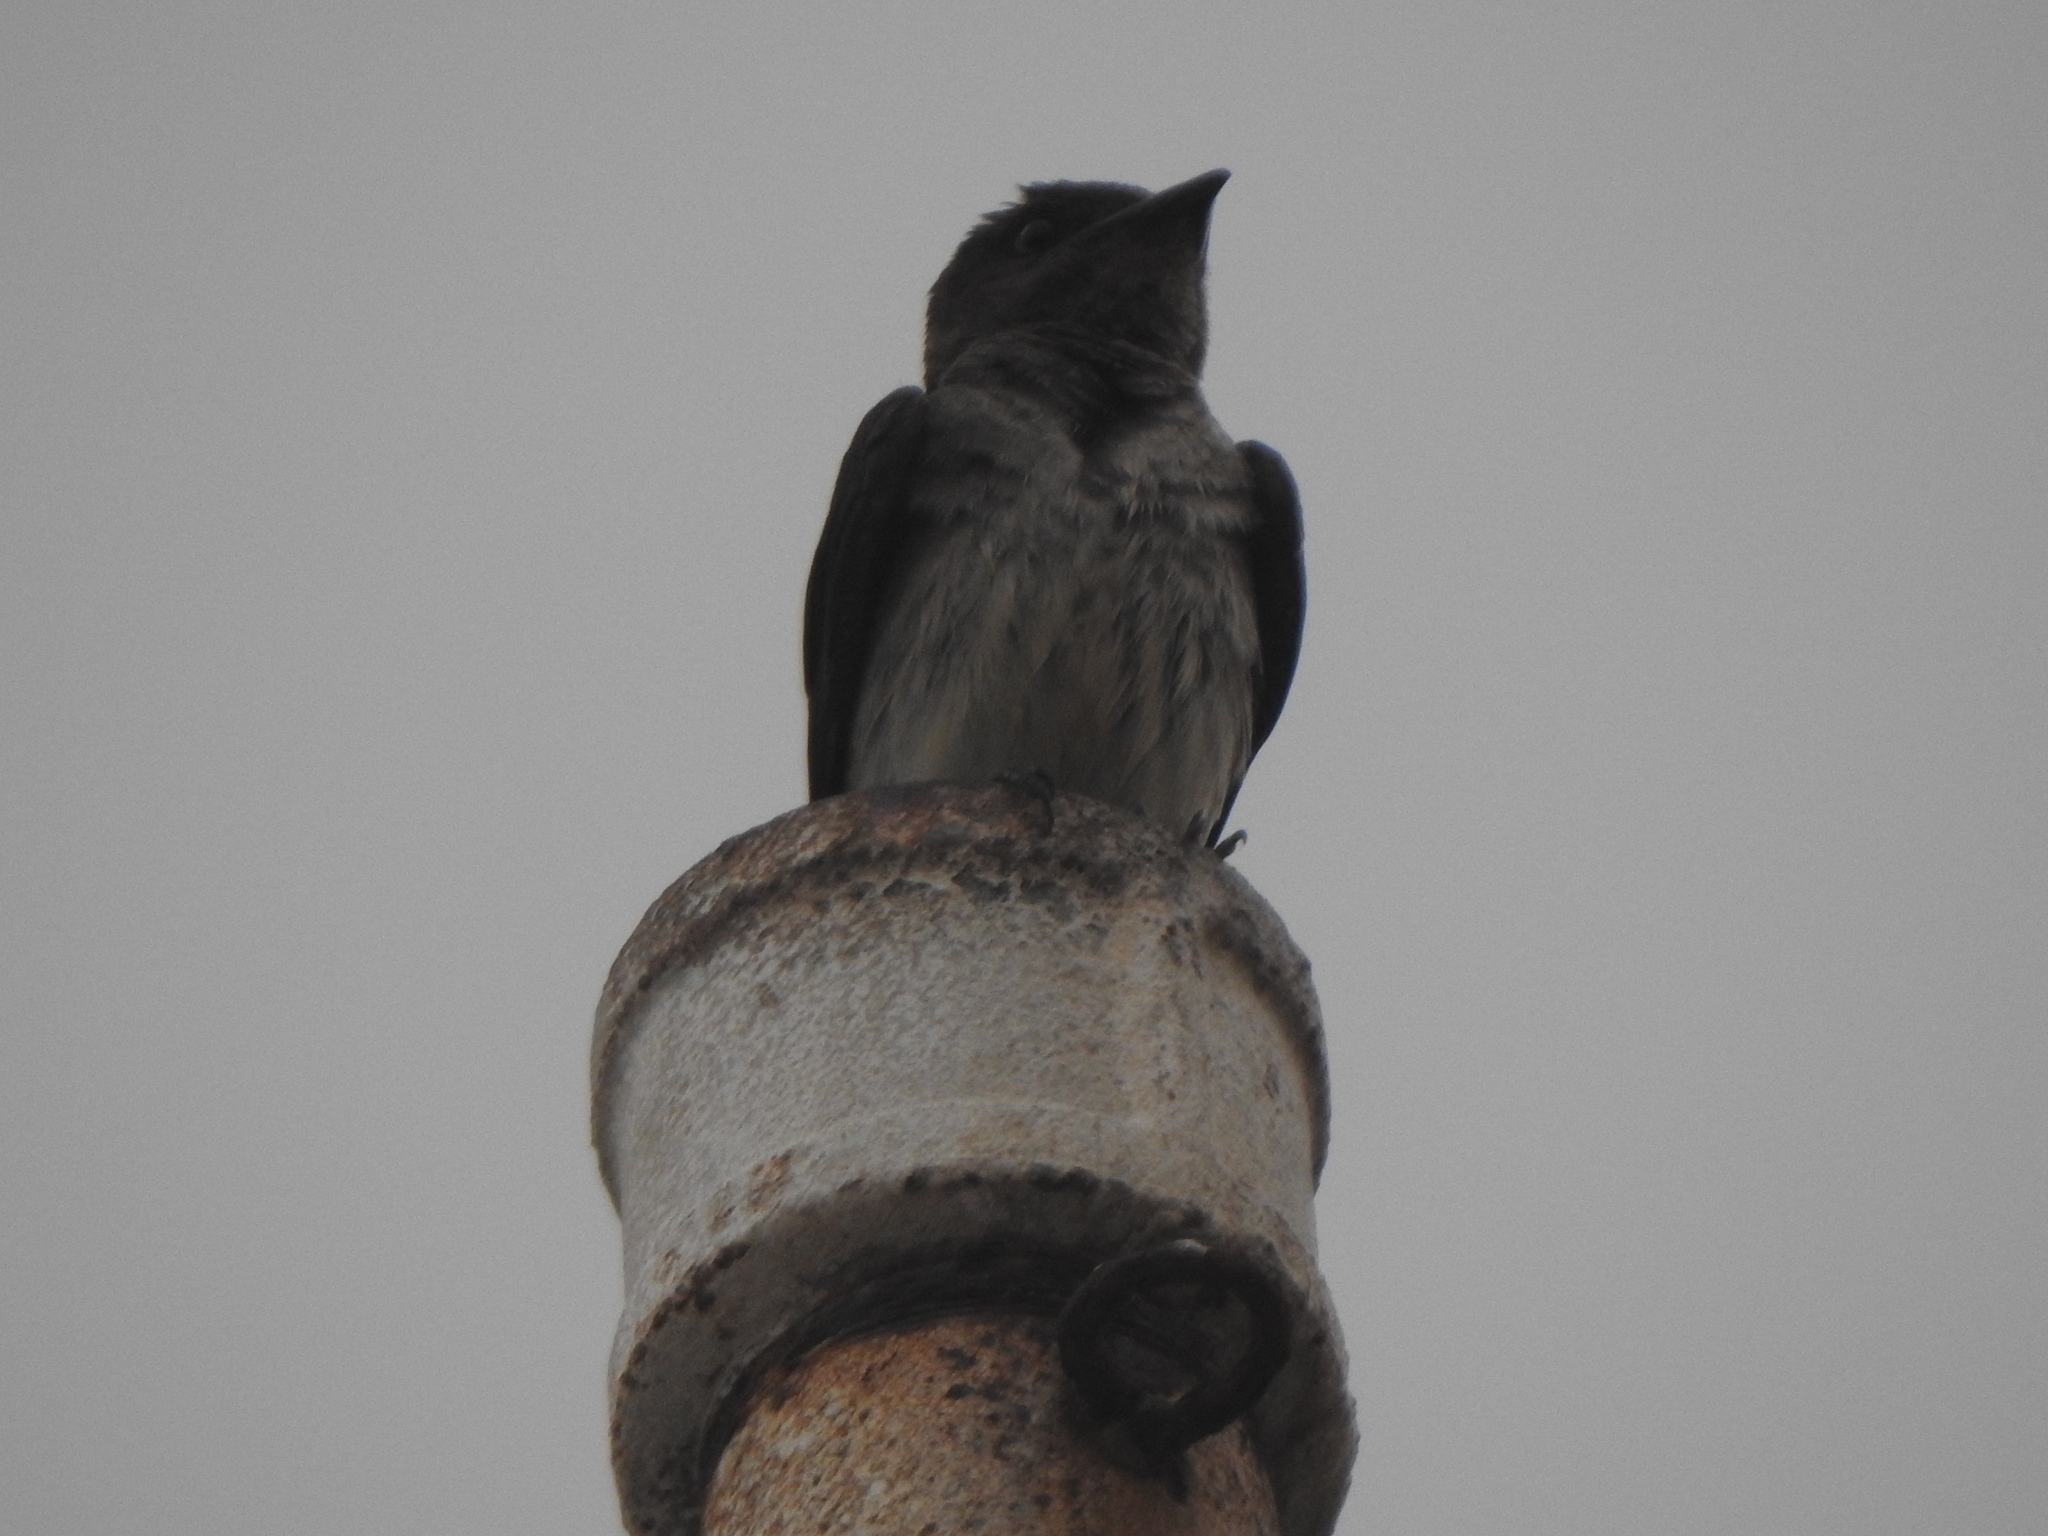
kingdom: Animalia
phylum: Chordata
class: Aves
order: Passeriformes
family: Hirundinidae
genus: Progne
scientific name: Progne chalybea
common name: Grey-breasted martin
